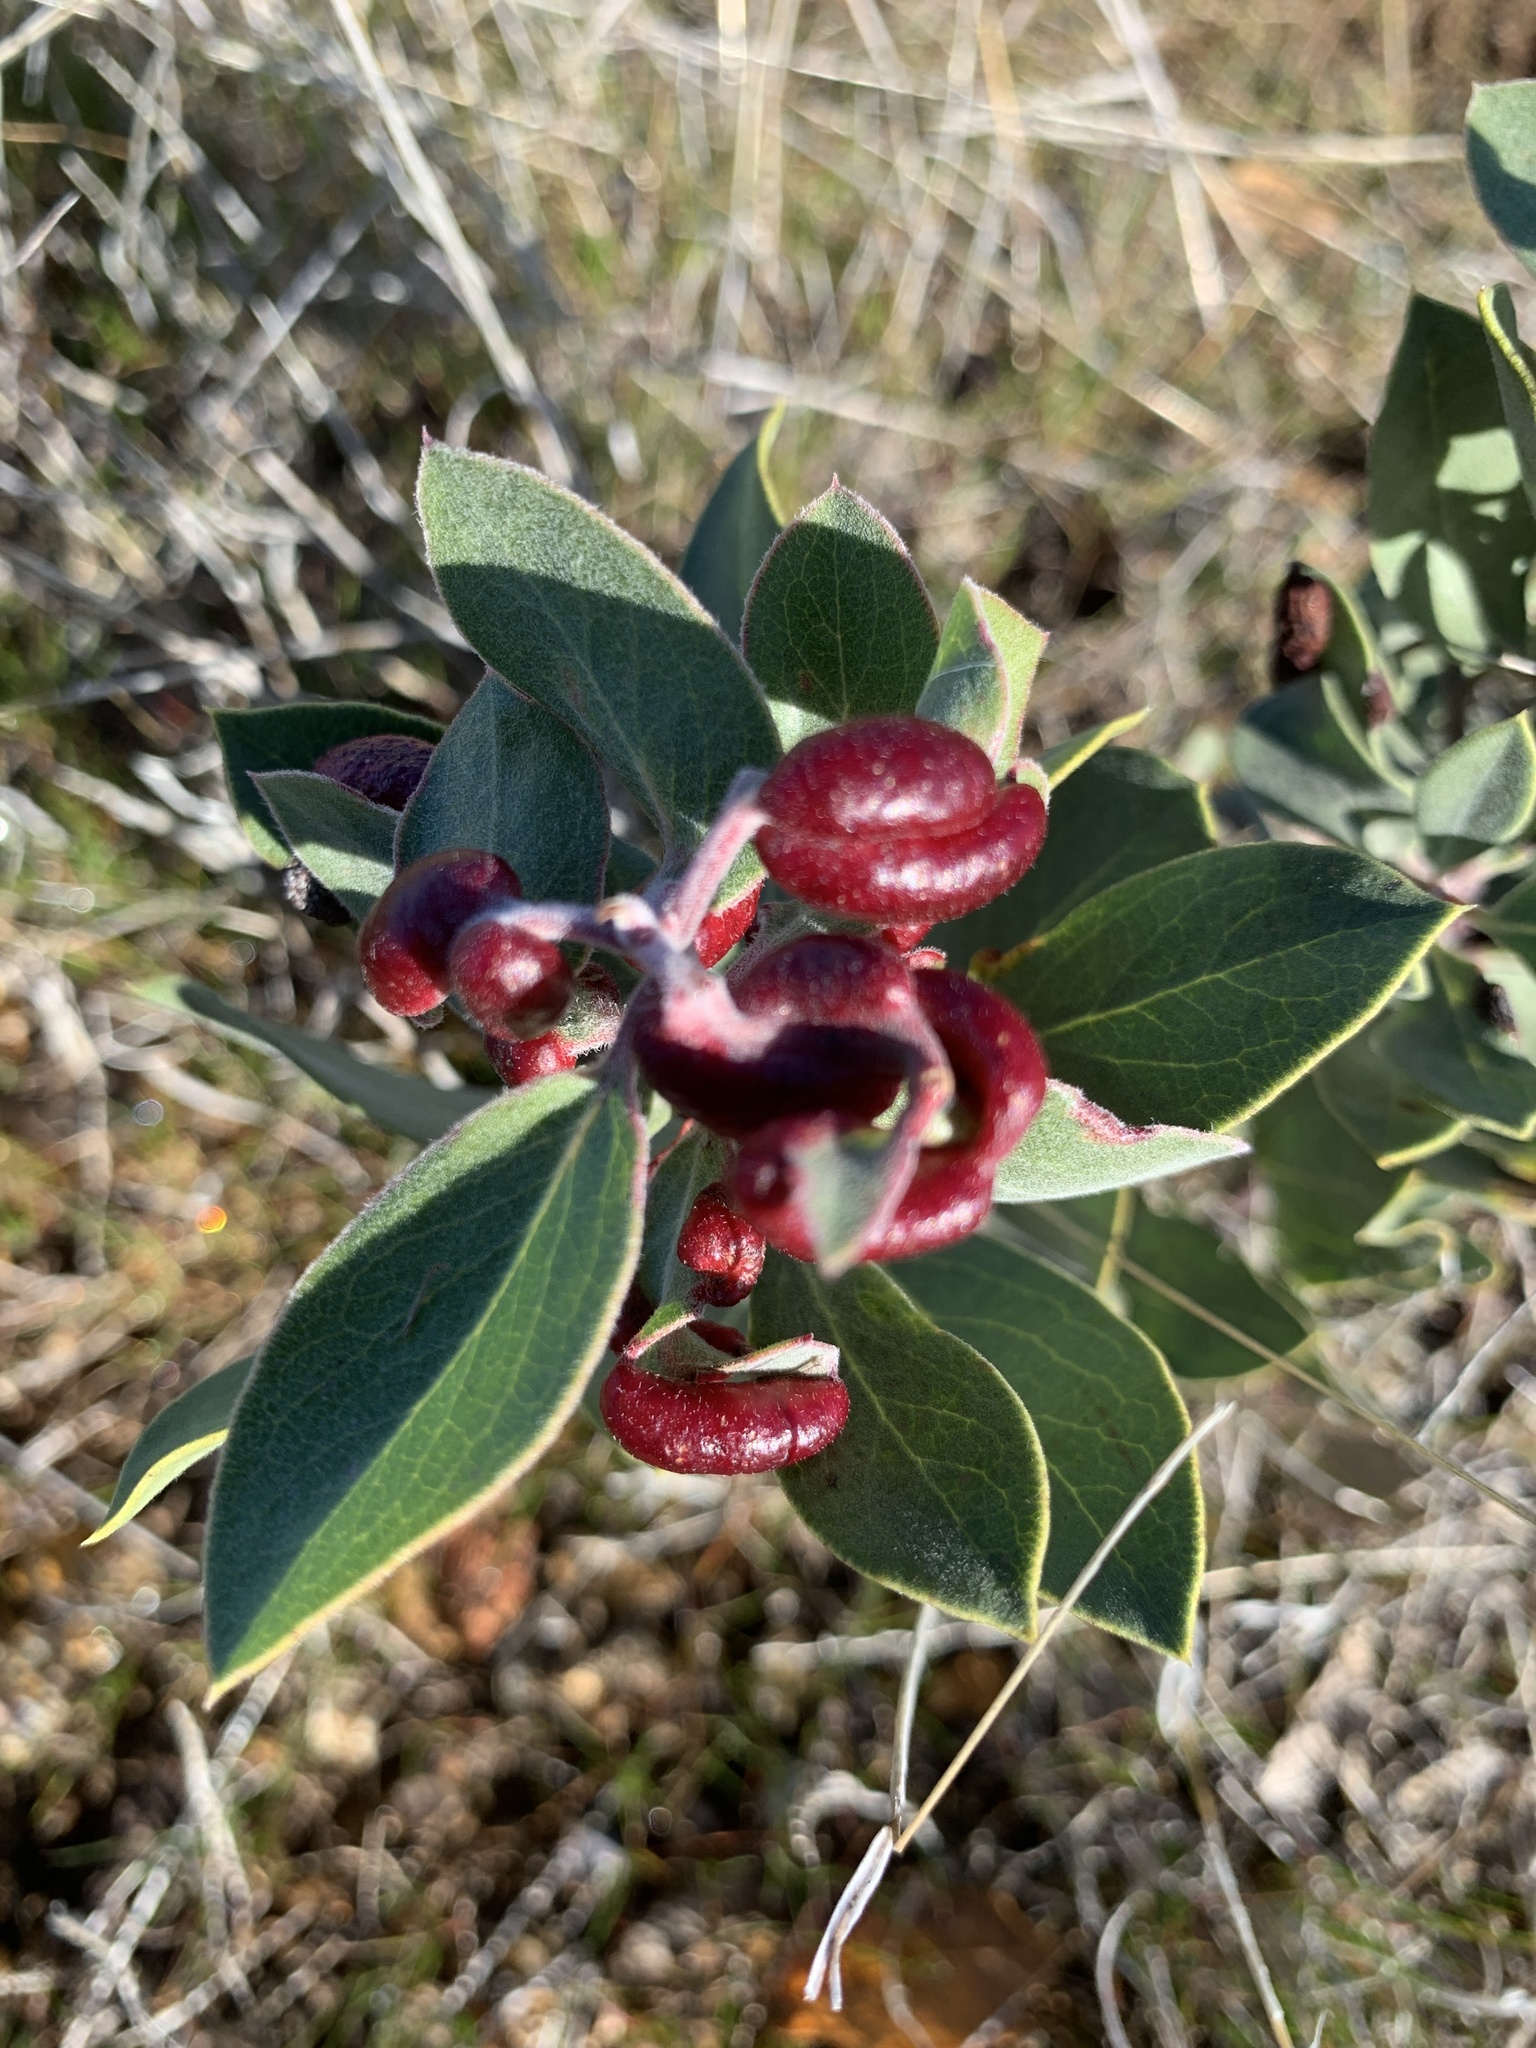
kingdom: Animalia
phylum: Arthropoda
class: Insecta
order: Hemiptera
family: Aphididae
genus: Tamalia
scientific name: Tamalia coweni
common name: Manzanita leafgall aphid
